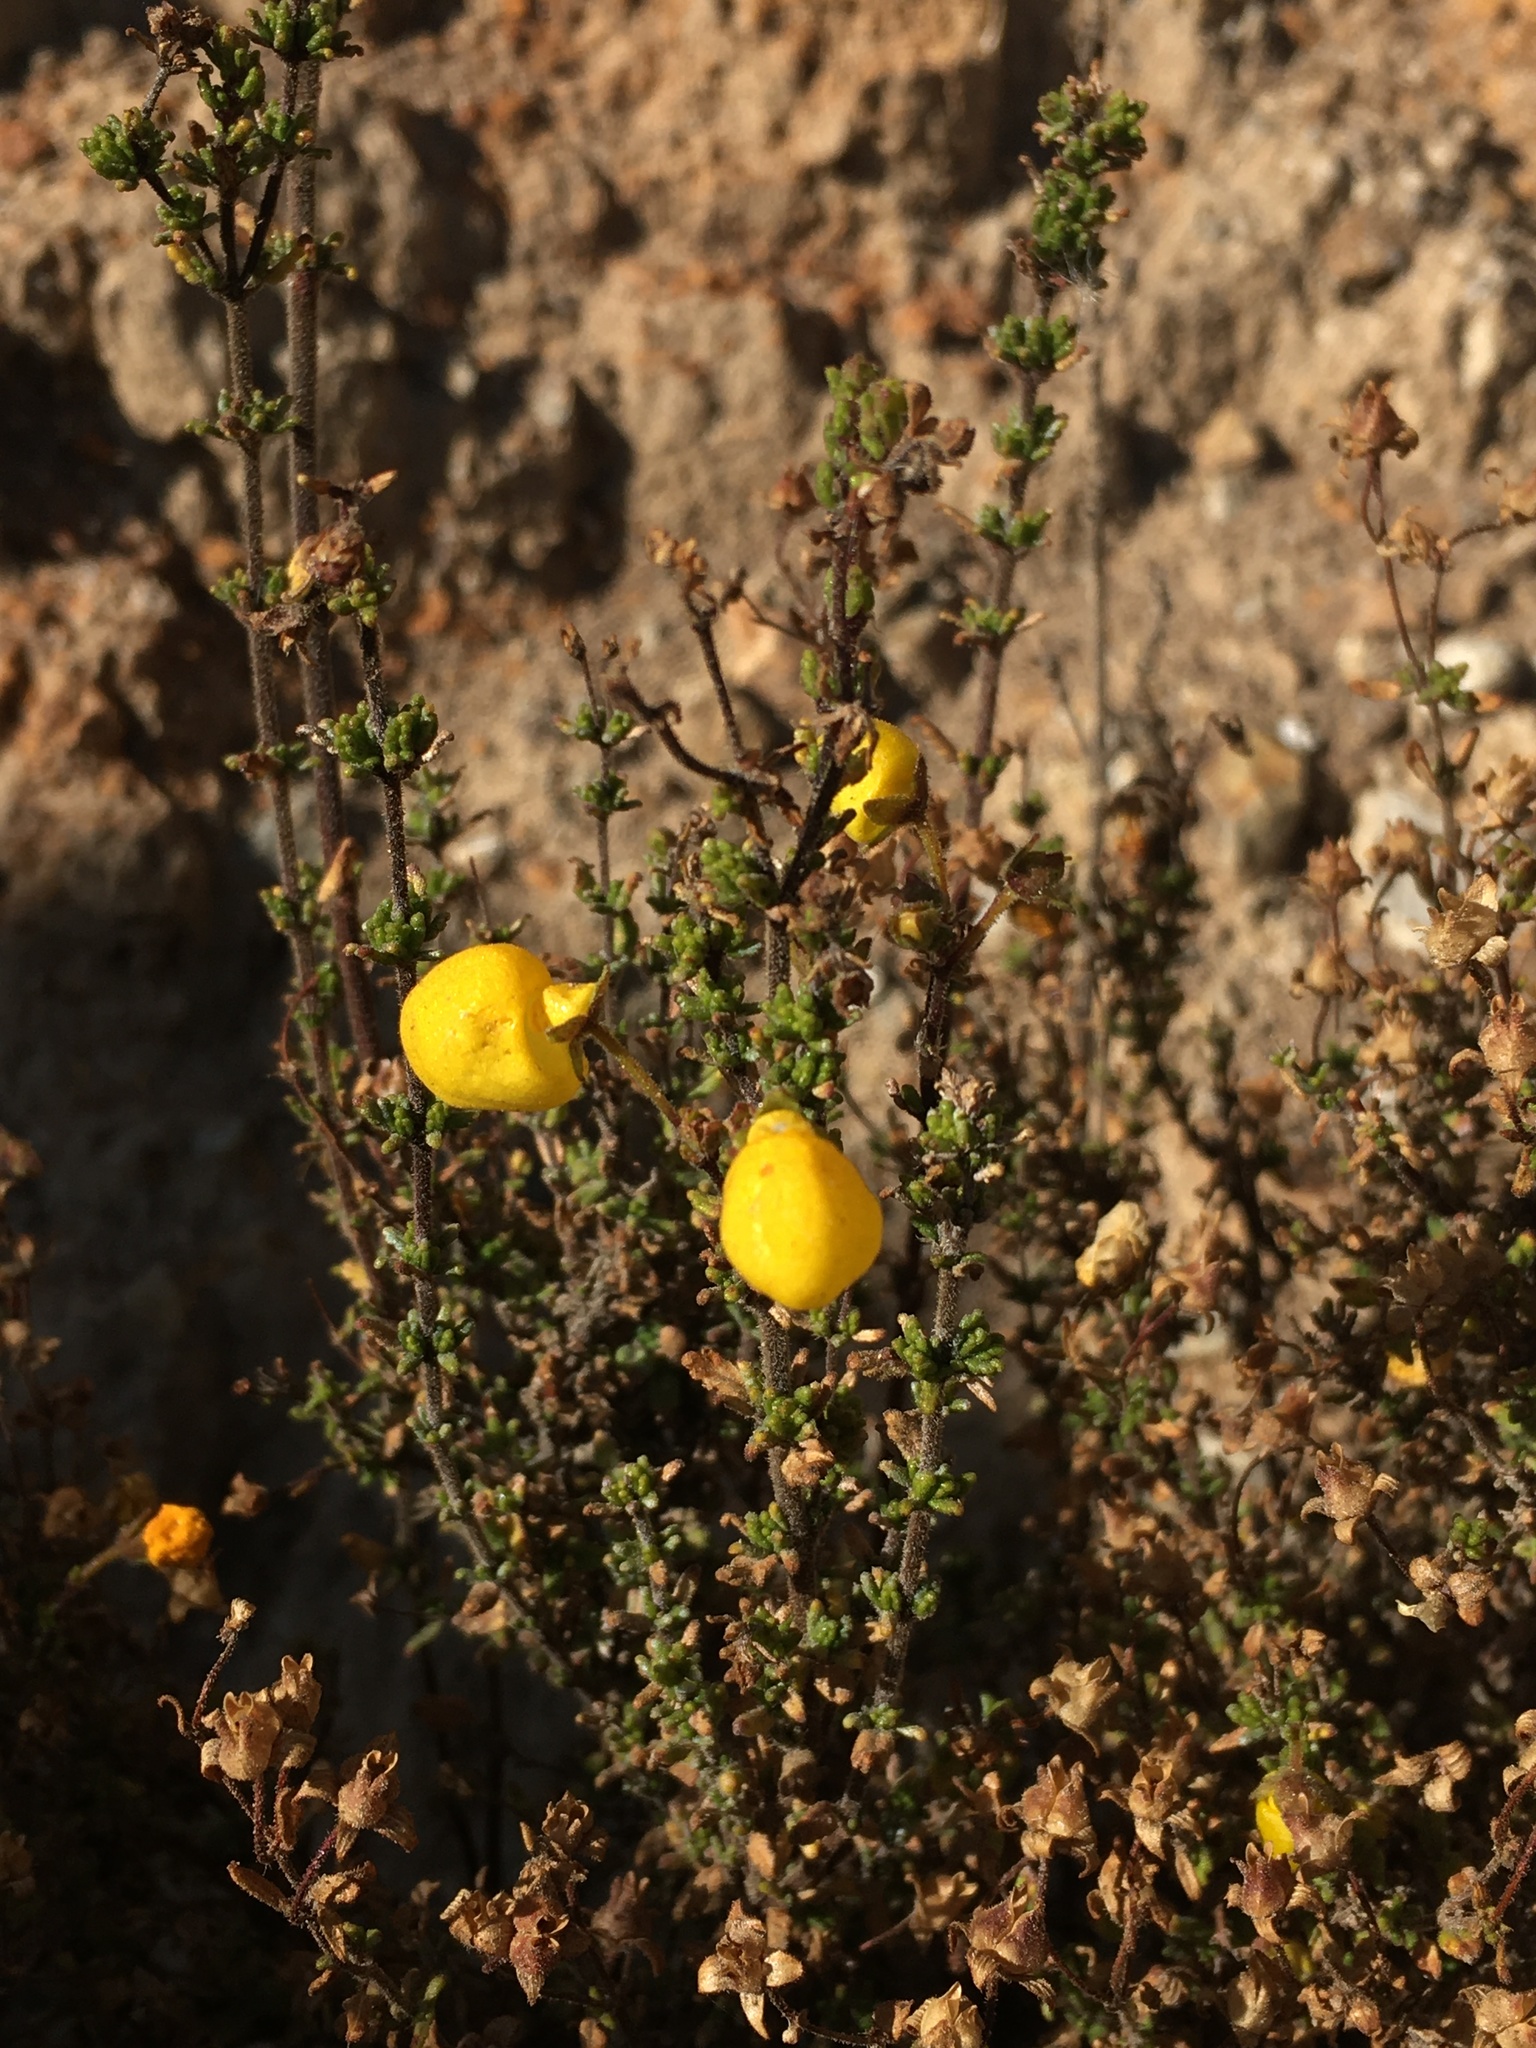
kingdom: Plantae
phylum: Tracheophyta
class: Magnoliopsida
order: Lamiales
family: Calceolariaceae
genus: Calceolaria
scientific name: Calceolaria inamoena
